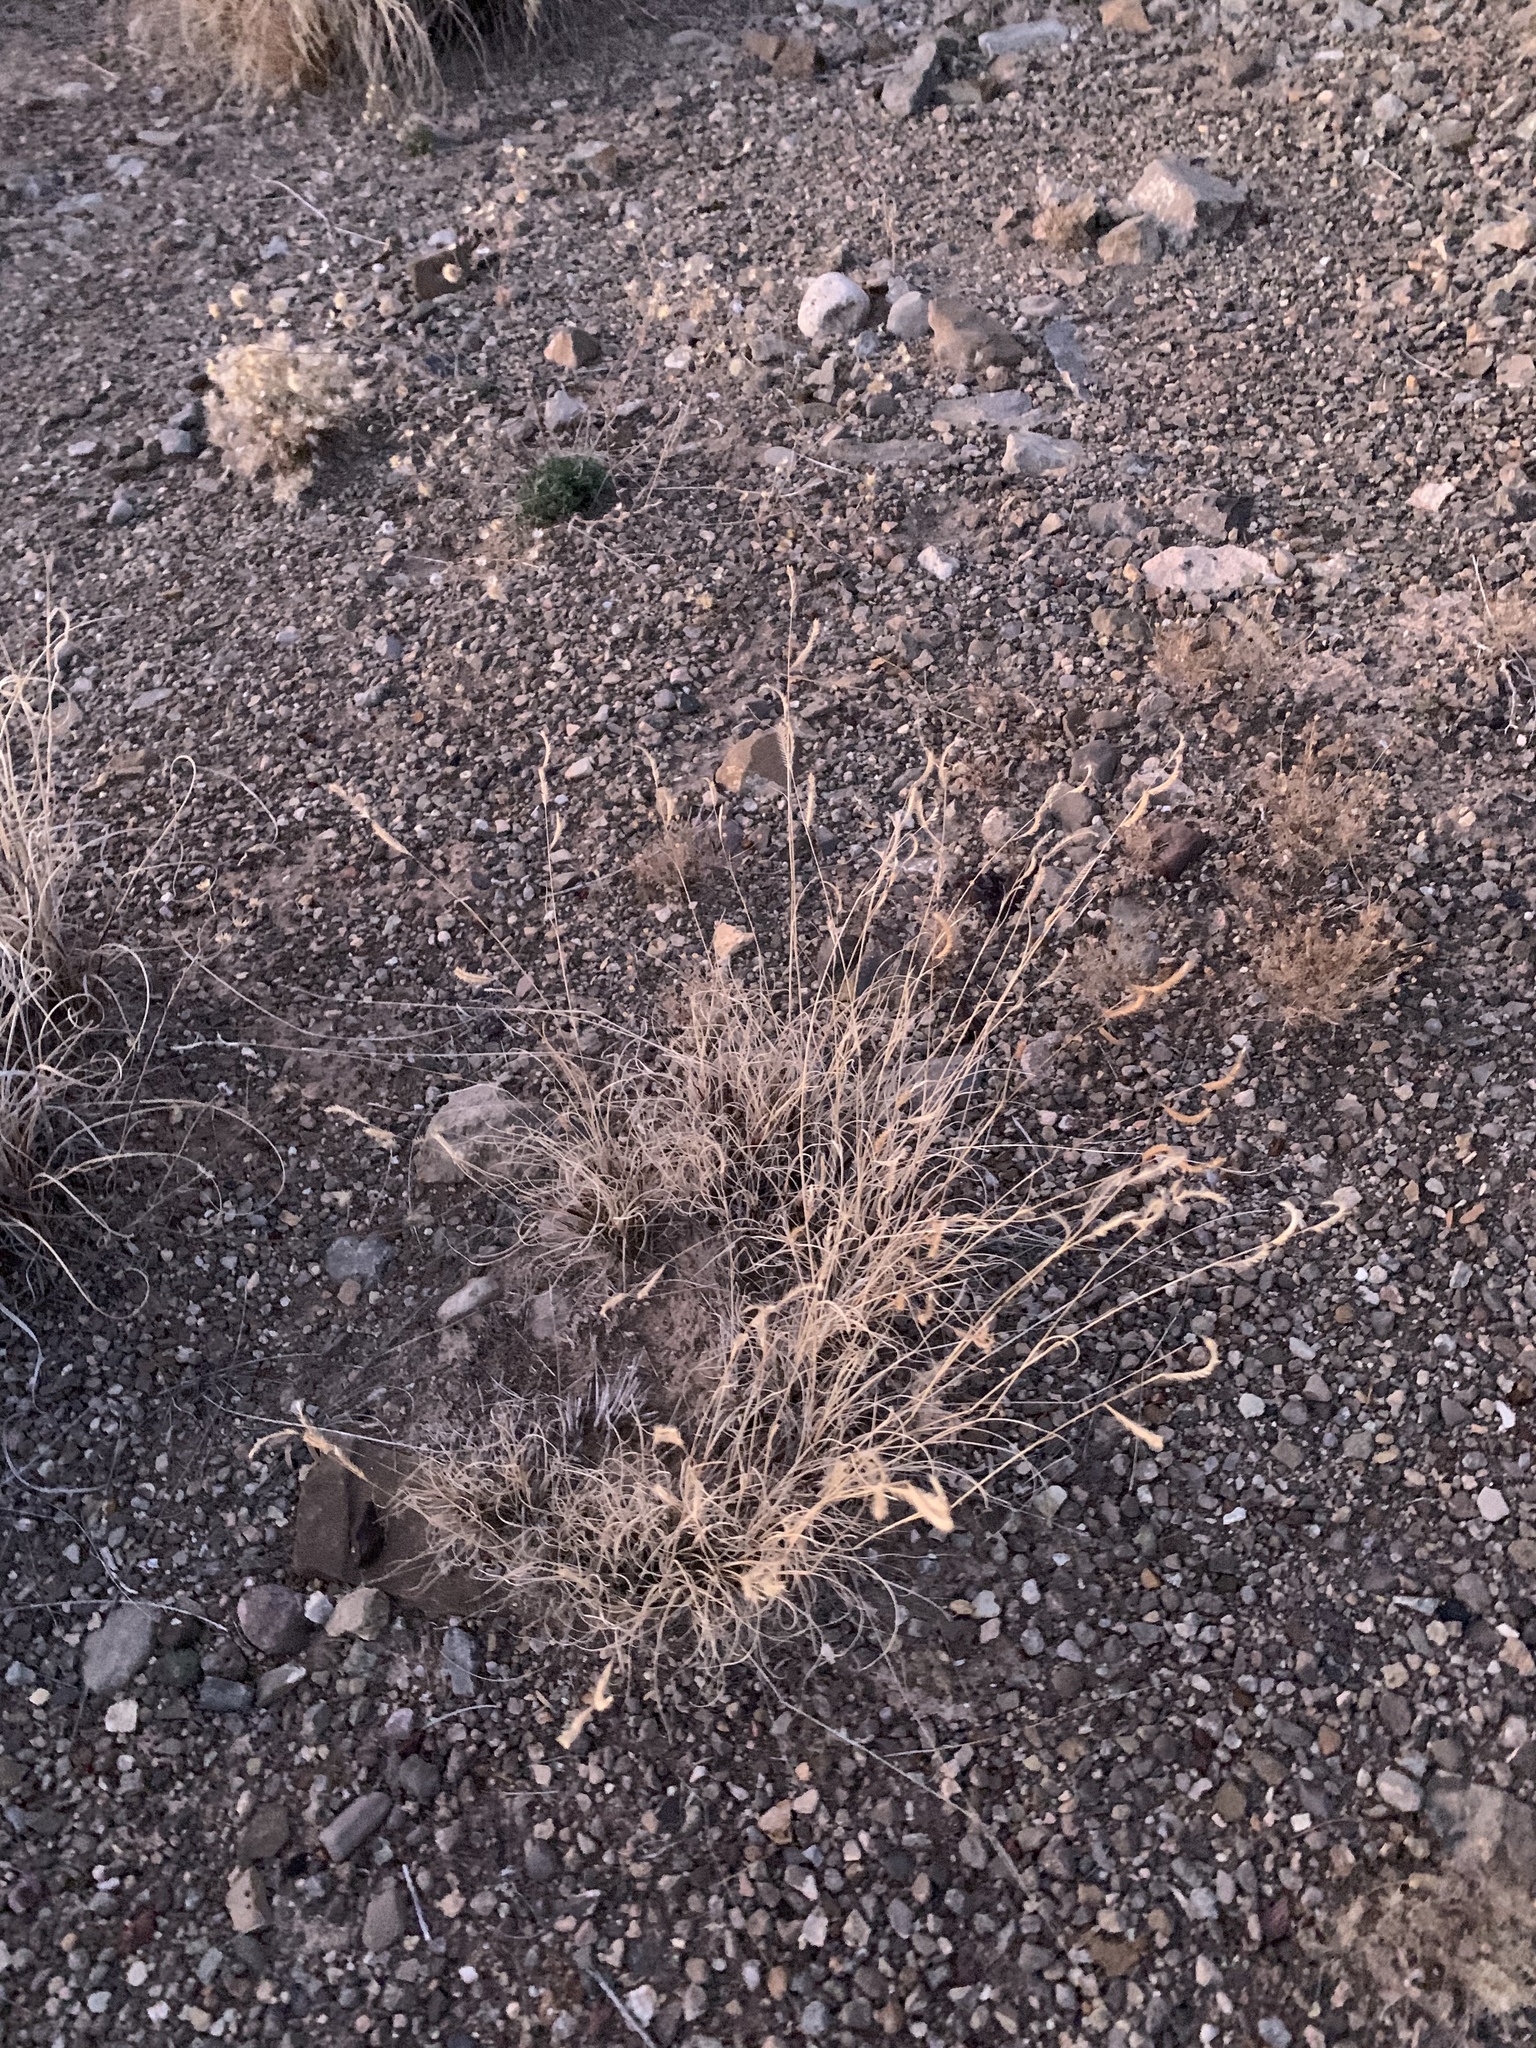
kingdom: Plantae
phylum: Tracheophyta
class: Liliopsida
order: Poales
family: Poaceae
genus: Bouteloua
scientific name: Bouteloua gracilis
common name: Blue grama
